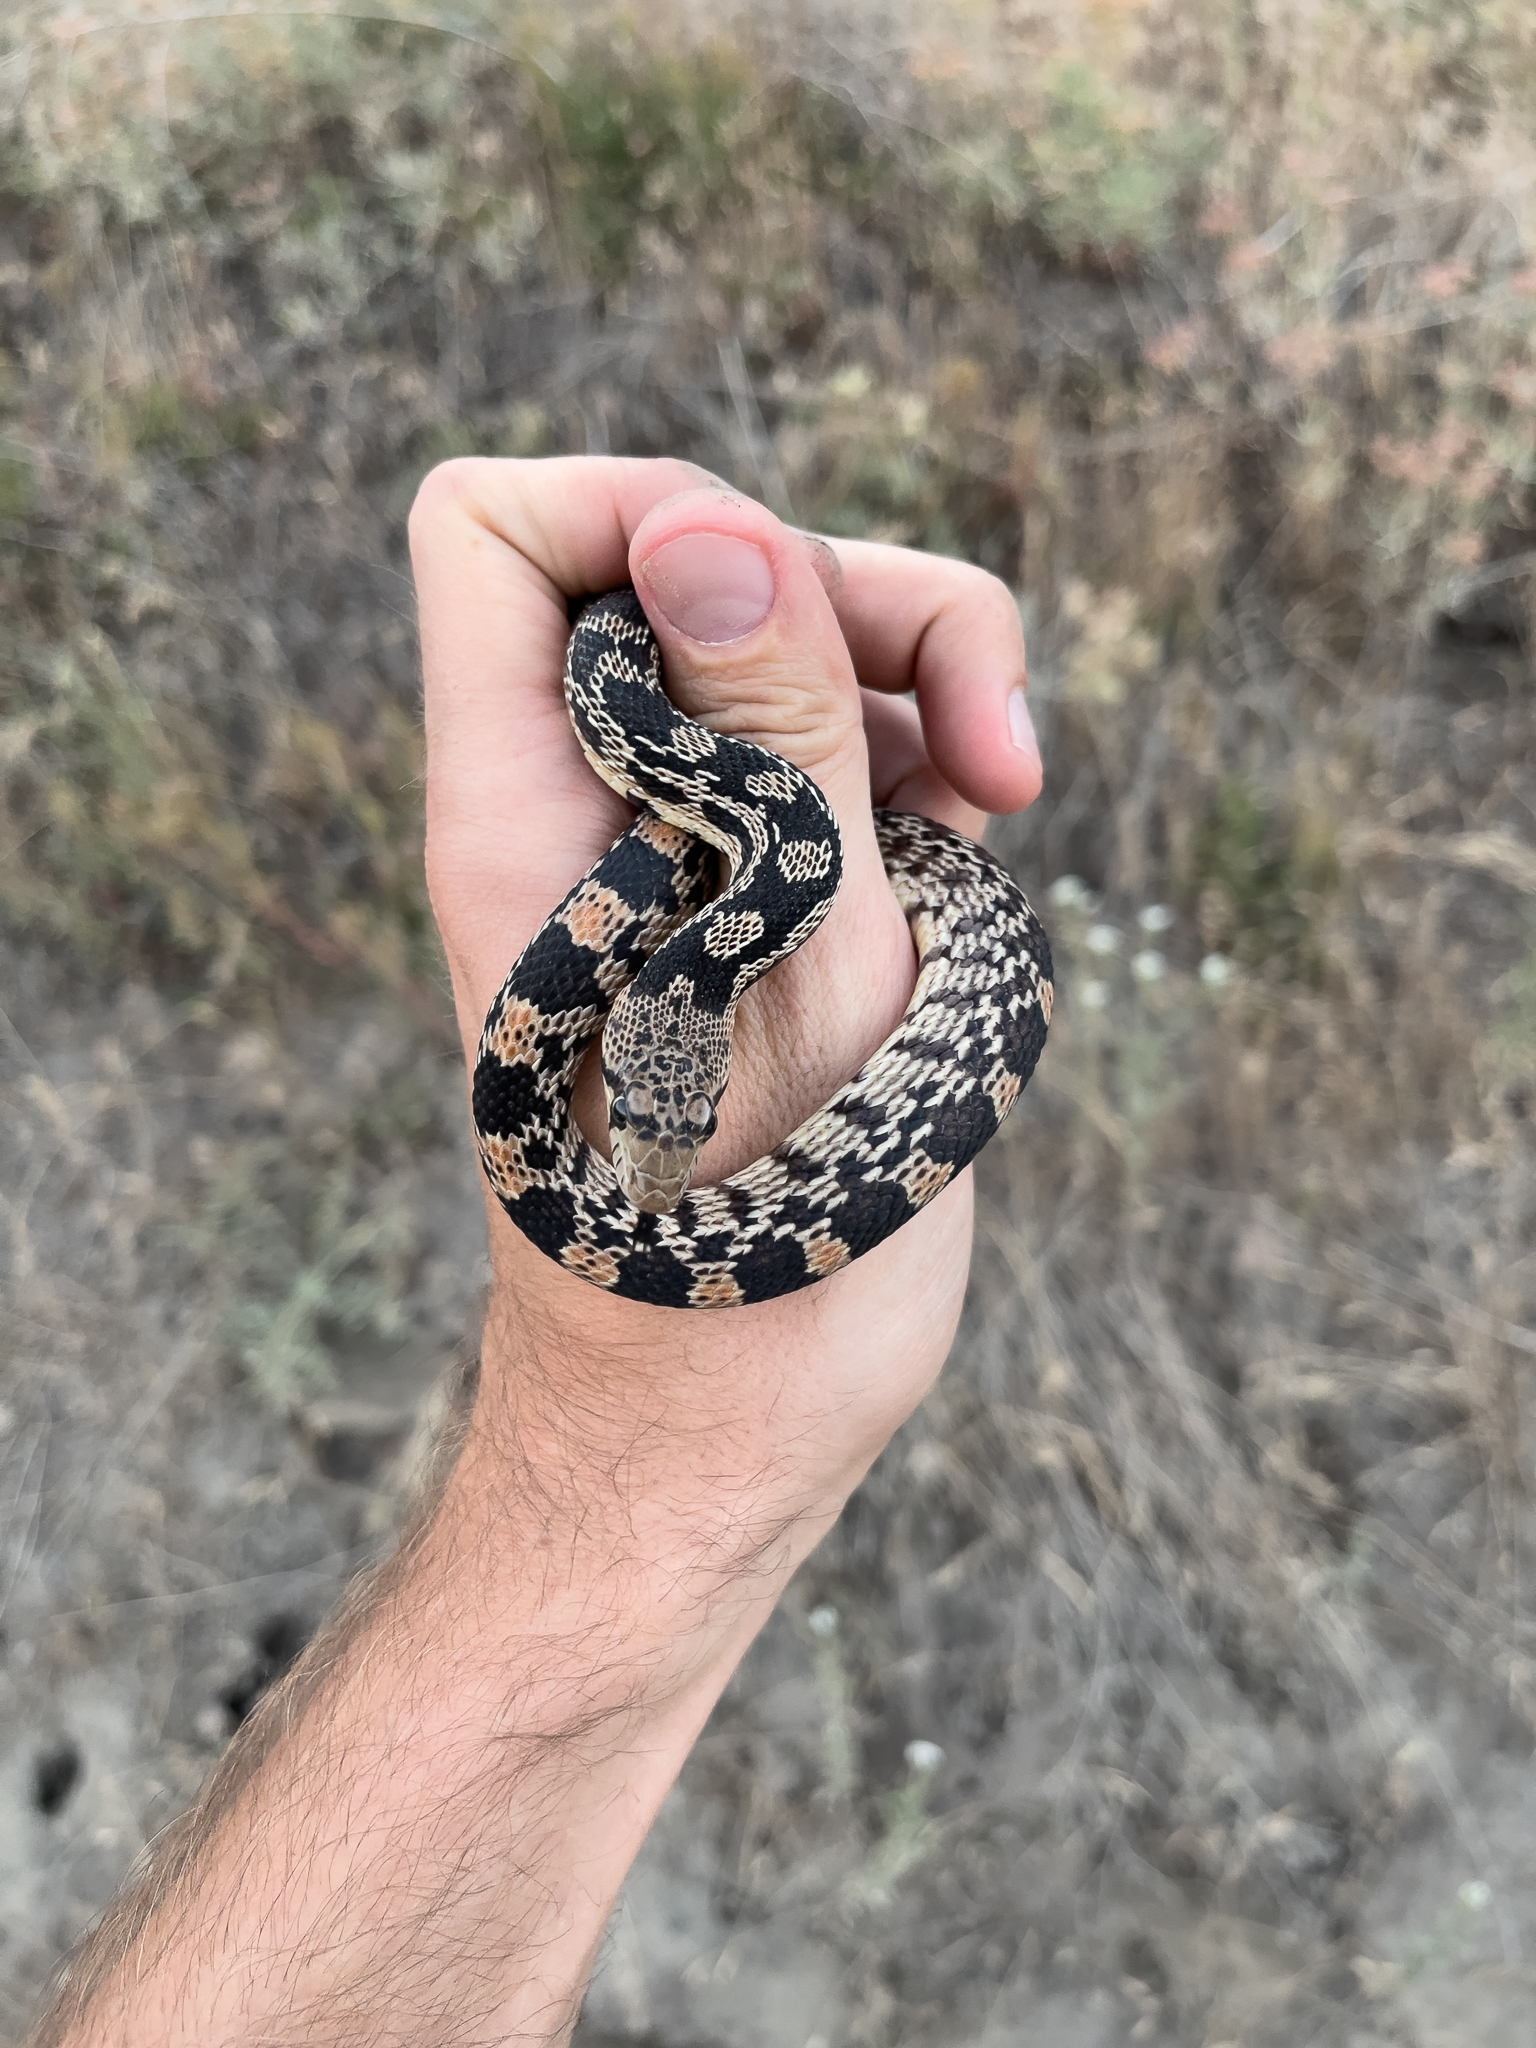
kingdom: Animalia
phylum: Chordata
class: Squamata
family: Colubridae
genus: Pituophis
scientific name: Pituophis catenifer
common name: Gopher snake
